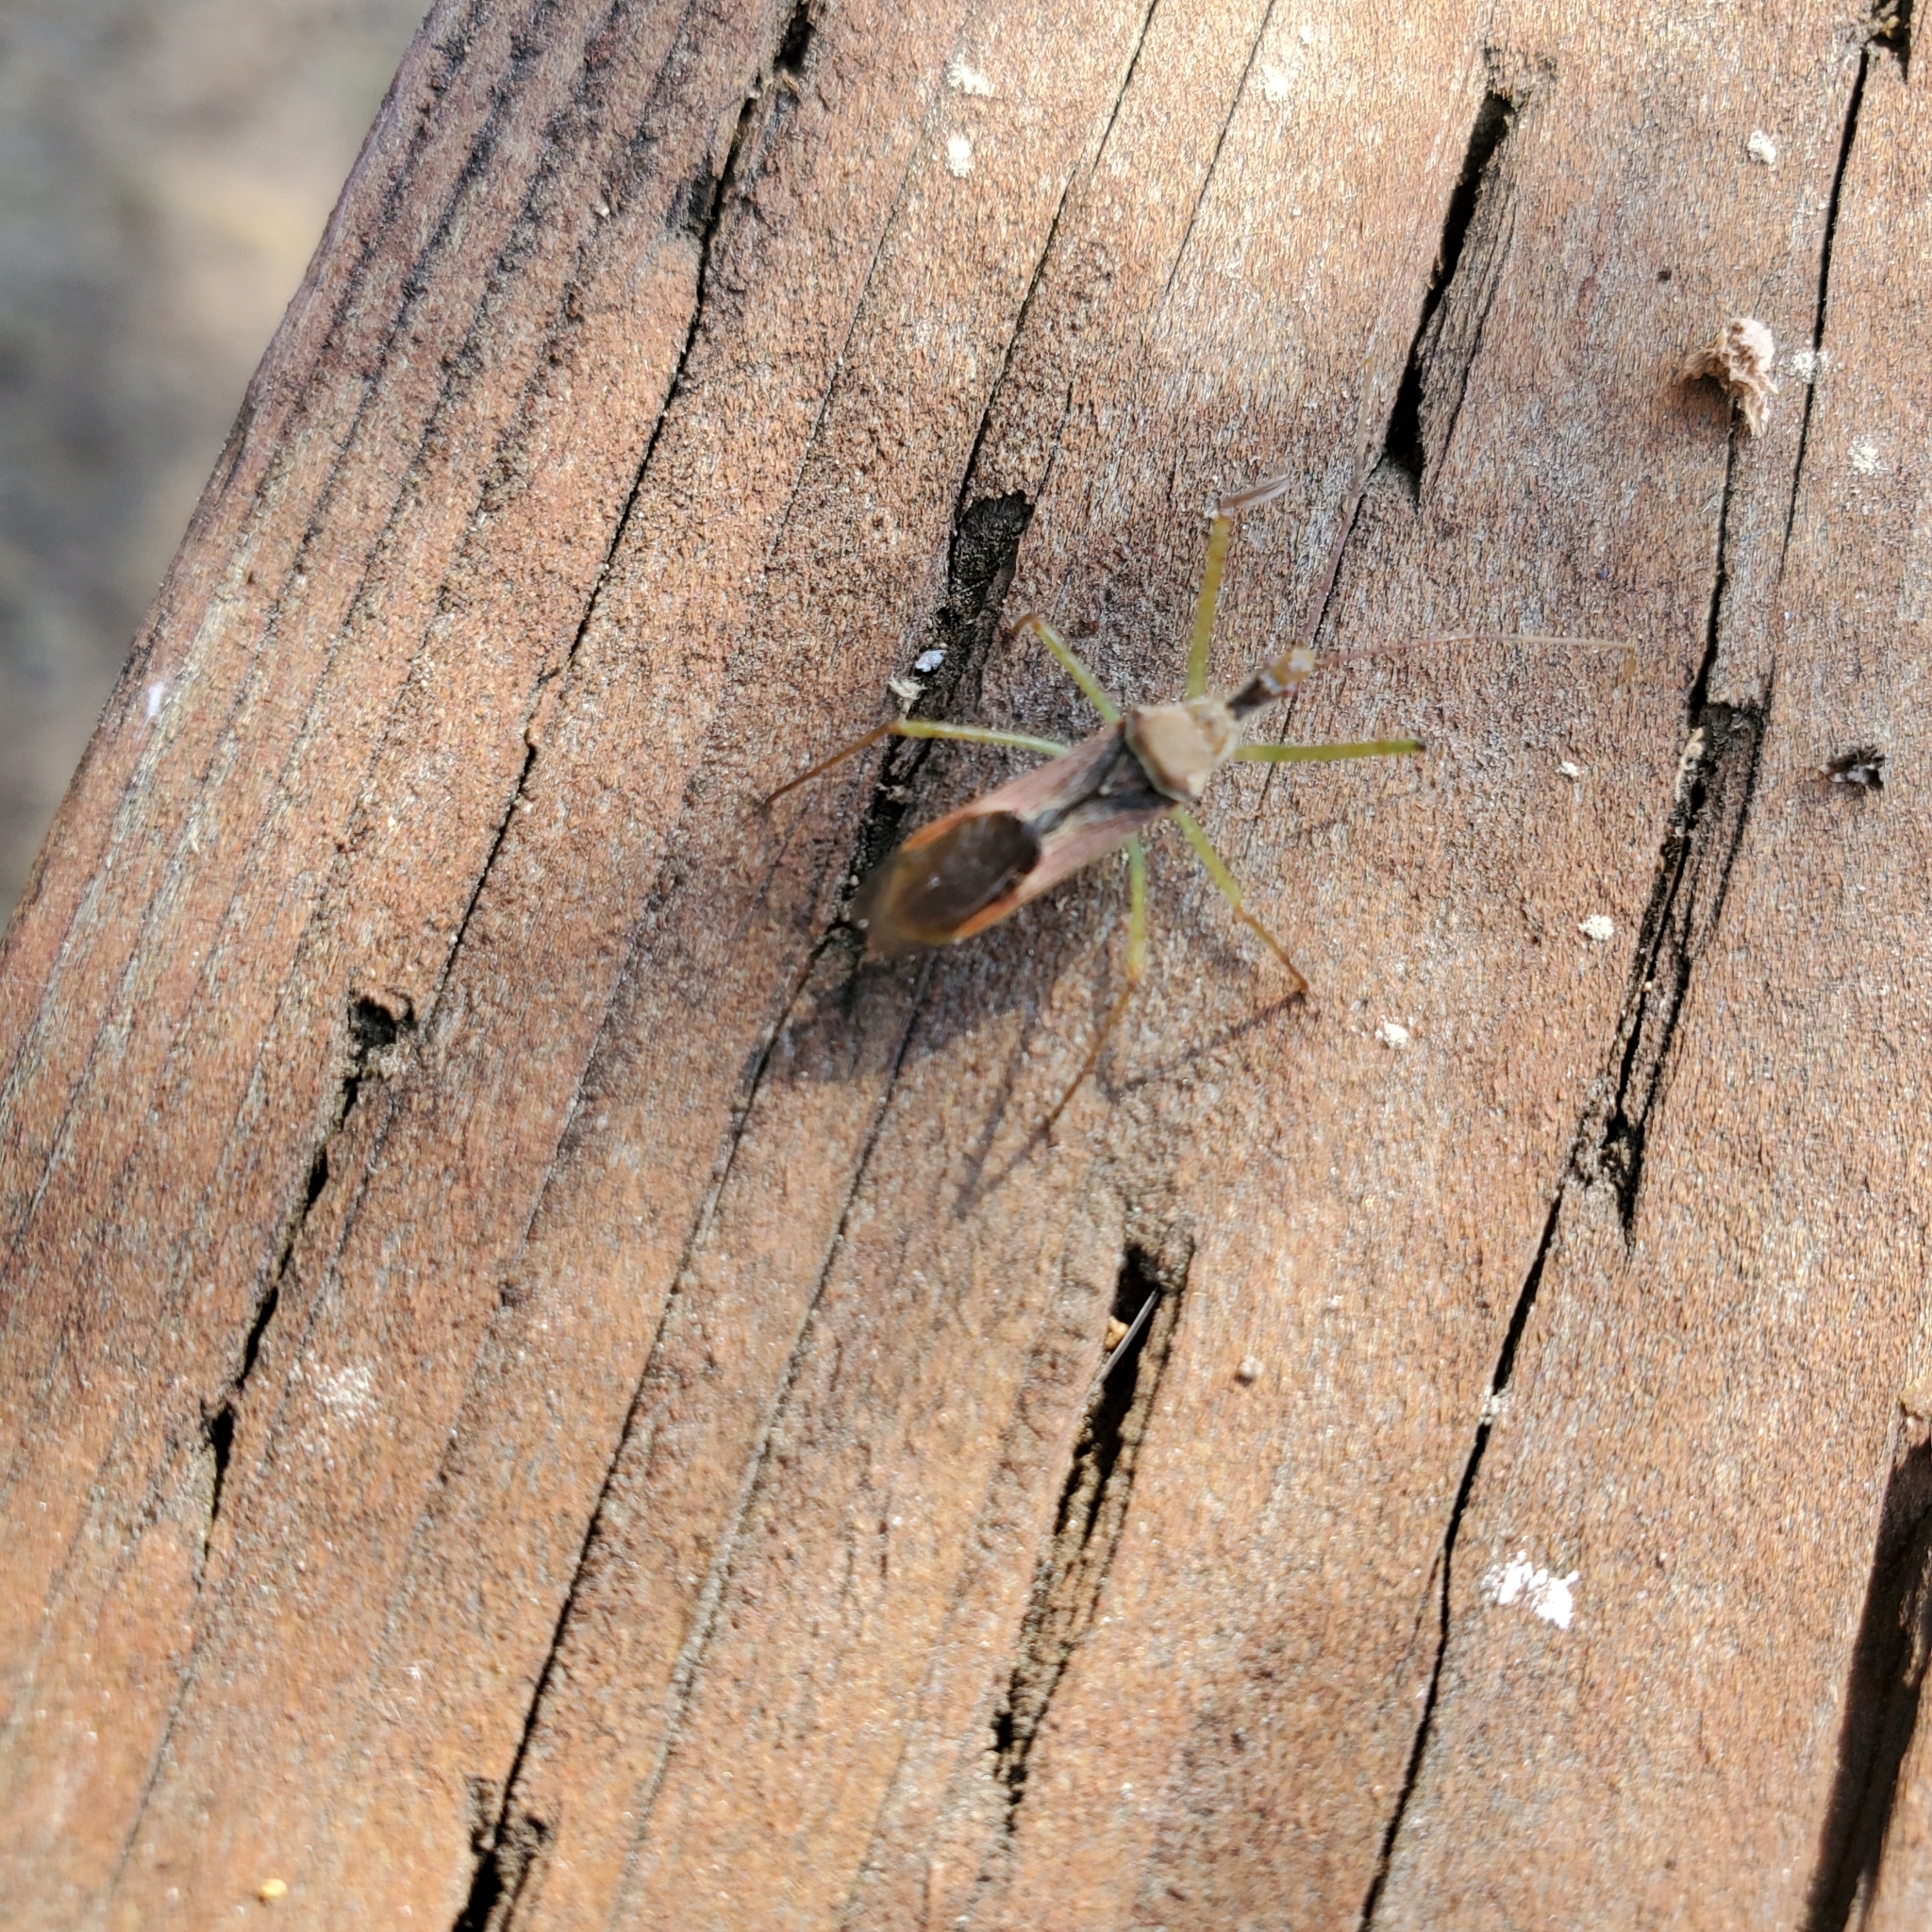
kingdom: Animalia
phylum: Arthropoda
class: Insecta
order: Hemiptera
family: Reduviidae
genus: Zelus
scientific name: Zelus renardii
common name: Assassin bug
